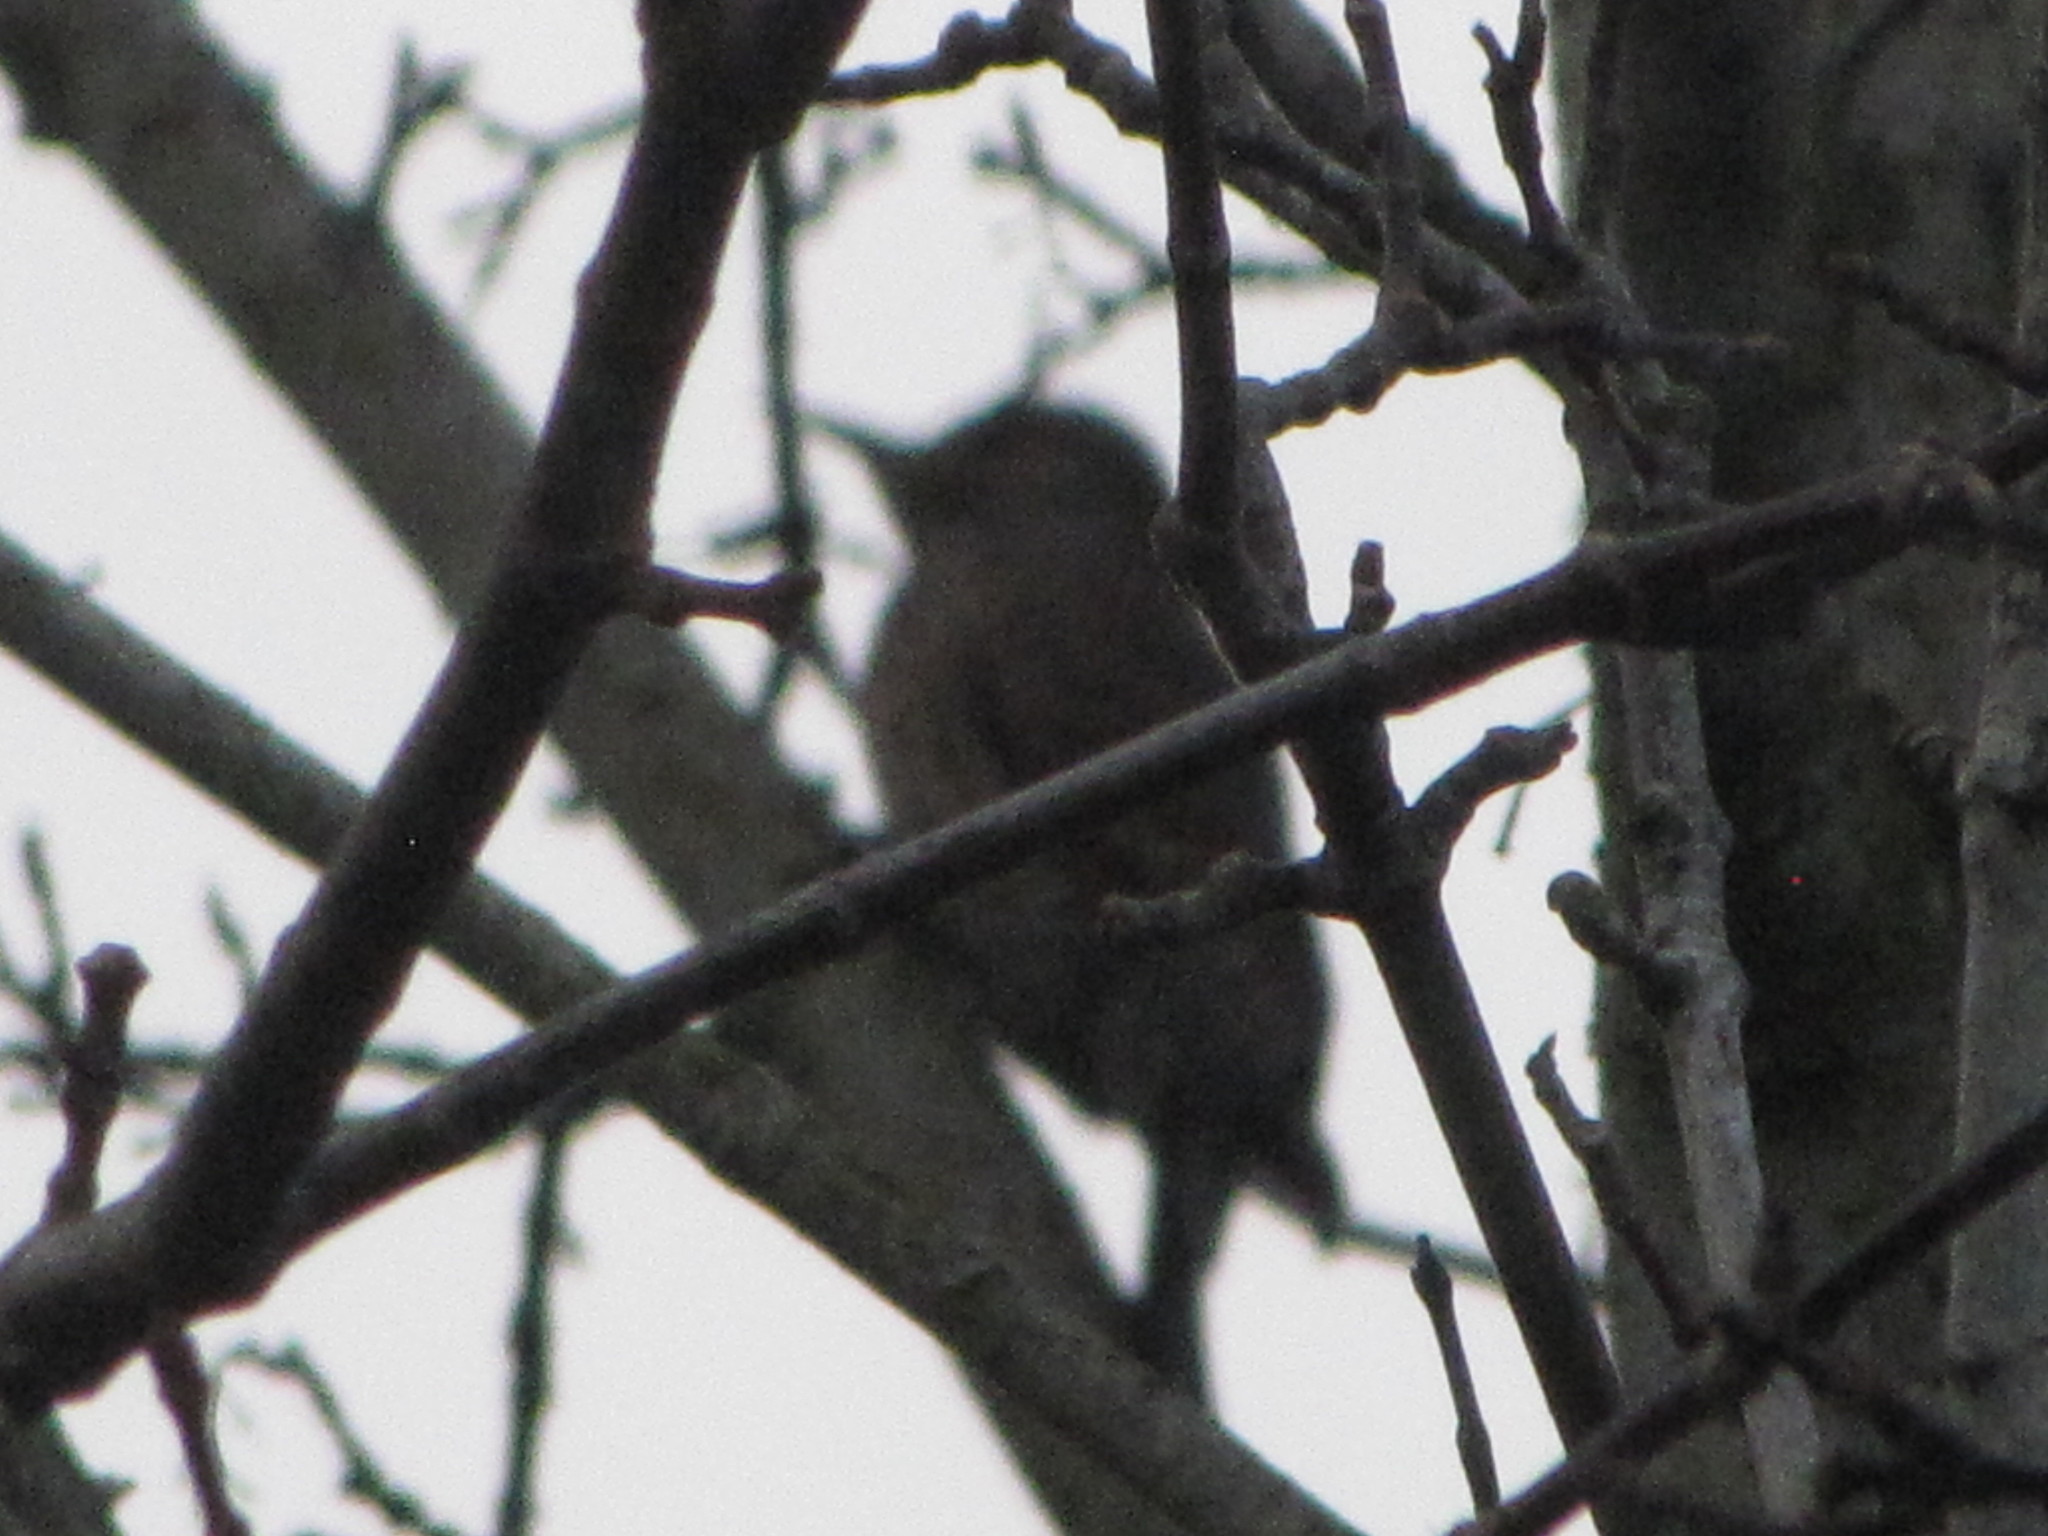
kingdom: Animalia
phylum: Chordata
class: Aves
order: Piciformes
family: Picidae
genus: Colaptes
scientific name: Colaptes auratus
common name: Northern flicker
